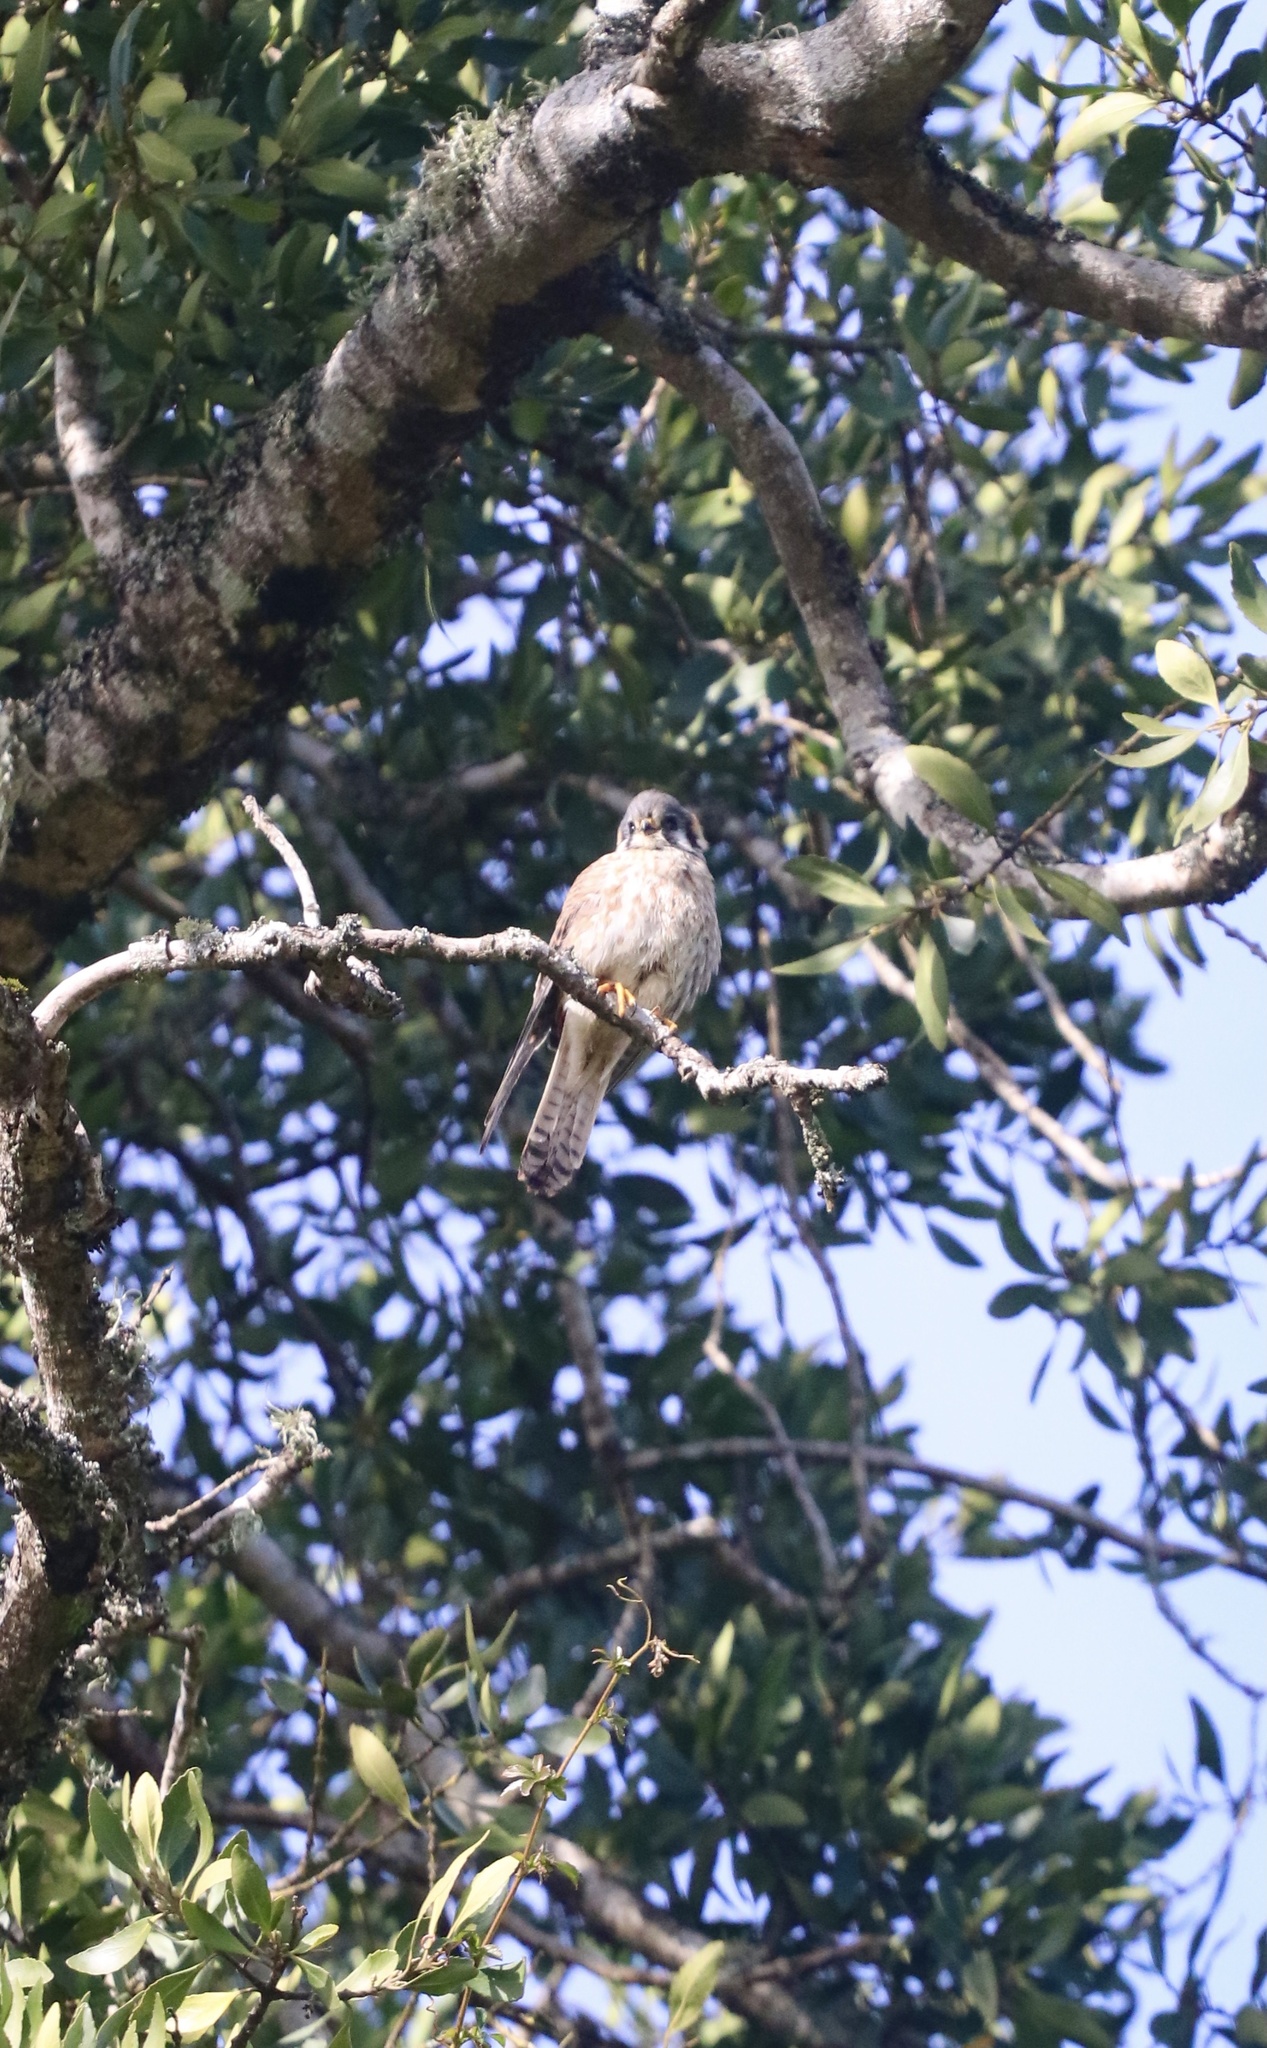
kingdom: Animalia
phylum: Chordata
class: Aves
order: Falconiformes
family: Falconidae
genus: Falco
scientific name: Falco sparverius
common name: American kestrel
